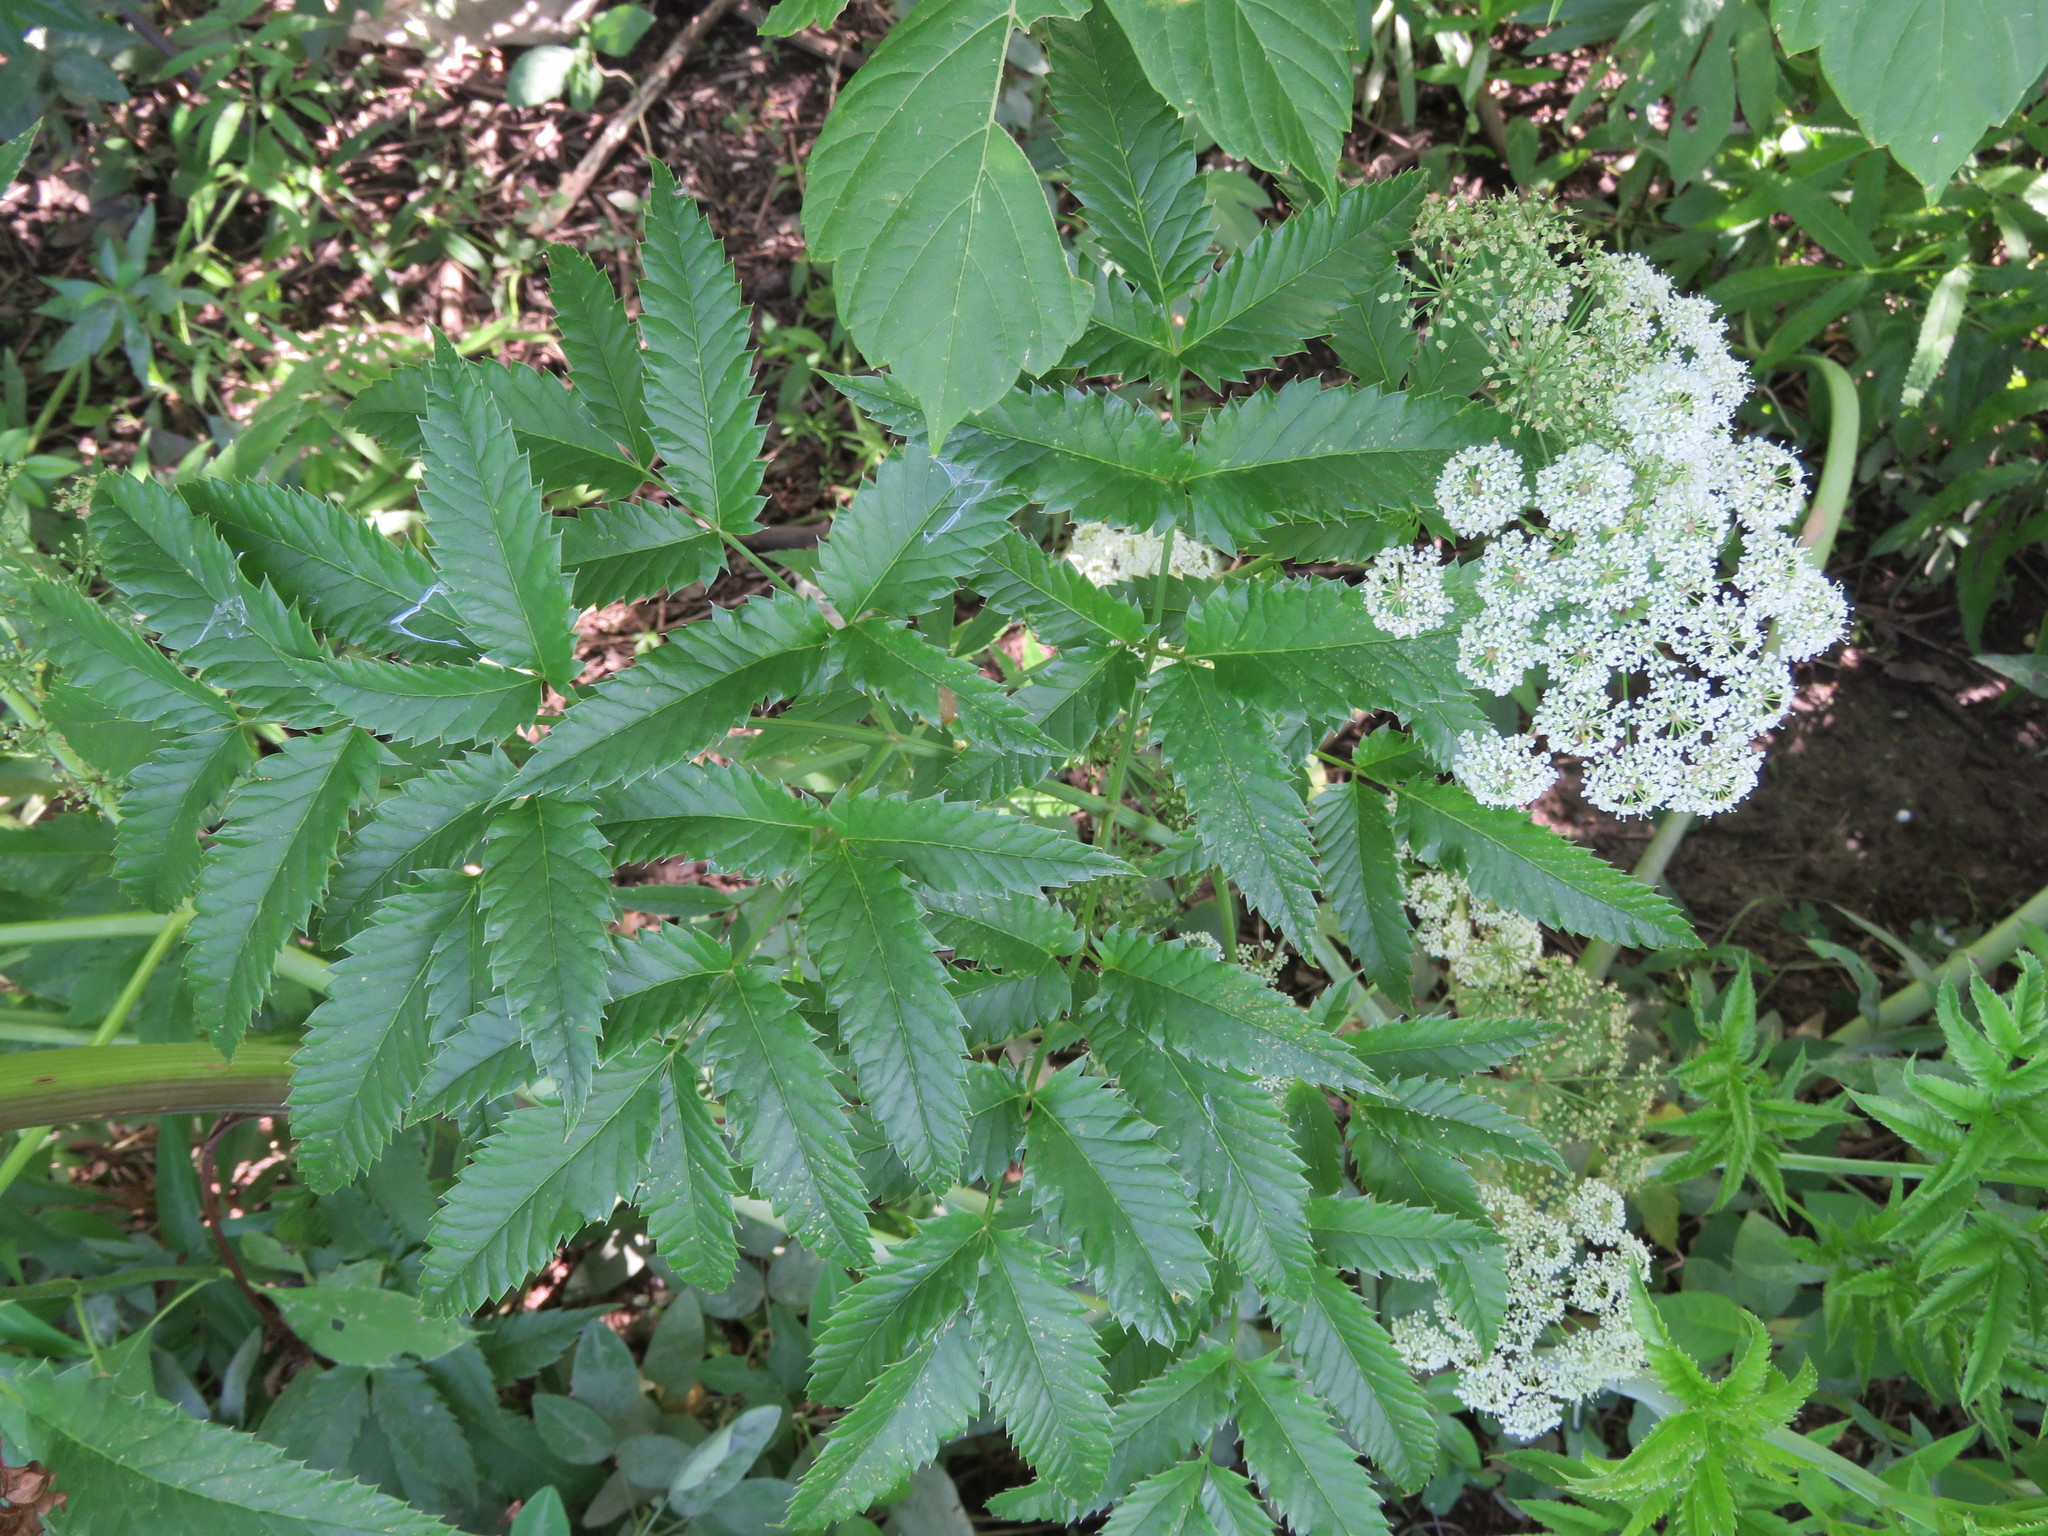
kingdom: Plantae
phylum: Tracheophyta
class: Magnoliopsida
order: Apiales
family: Apiaceae
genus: Cicuta
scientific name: Cicuta maculata
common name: Spotted cowbane
